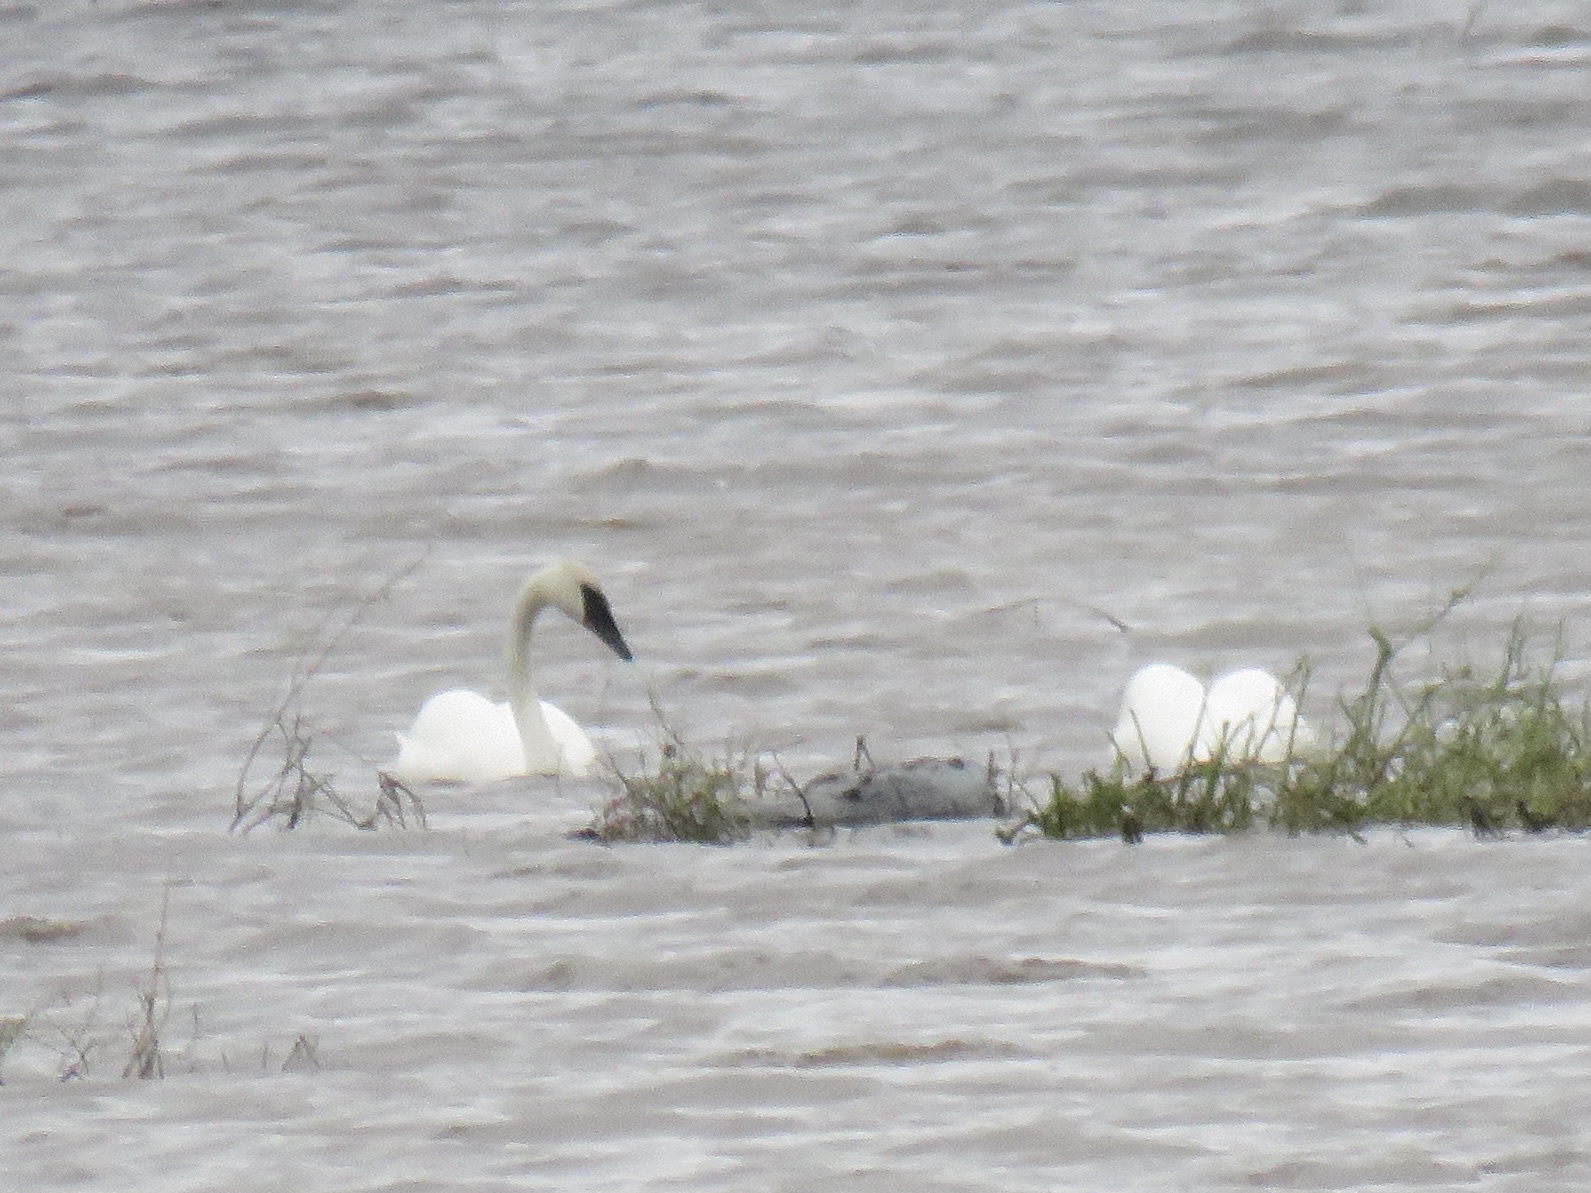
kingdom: Animalia
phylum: Chordata
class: Aves
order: Anseriformes
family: Anatidae
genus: Cygnus
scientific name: Cygnus buccinator
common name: Trumpeter swan
